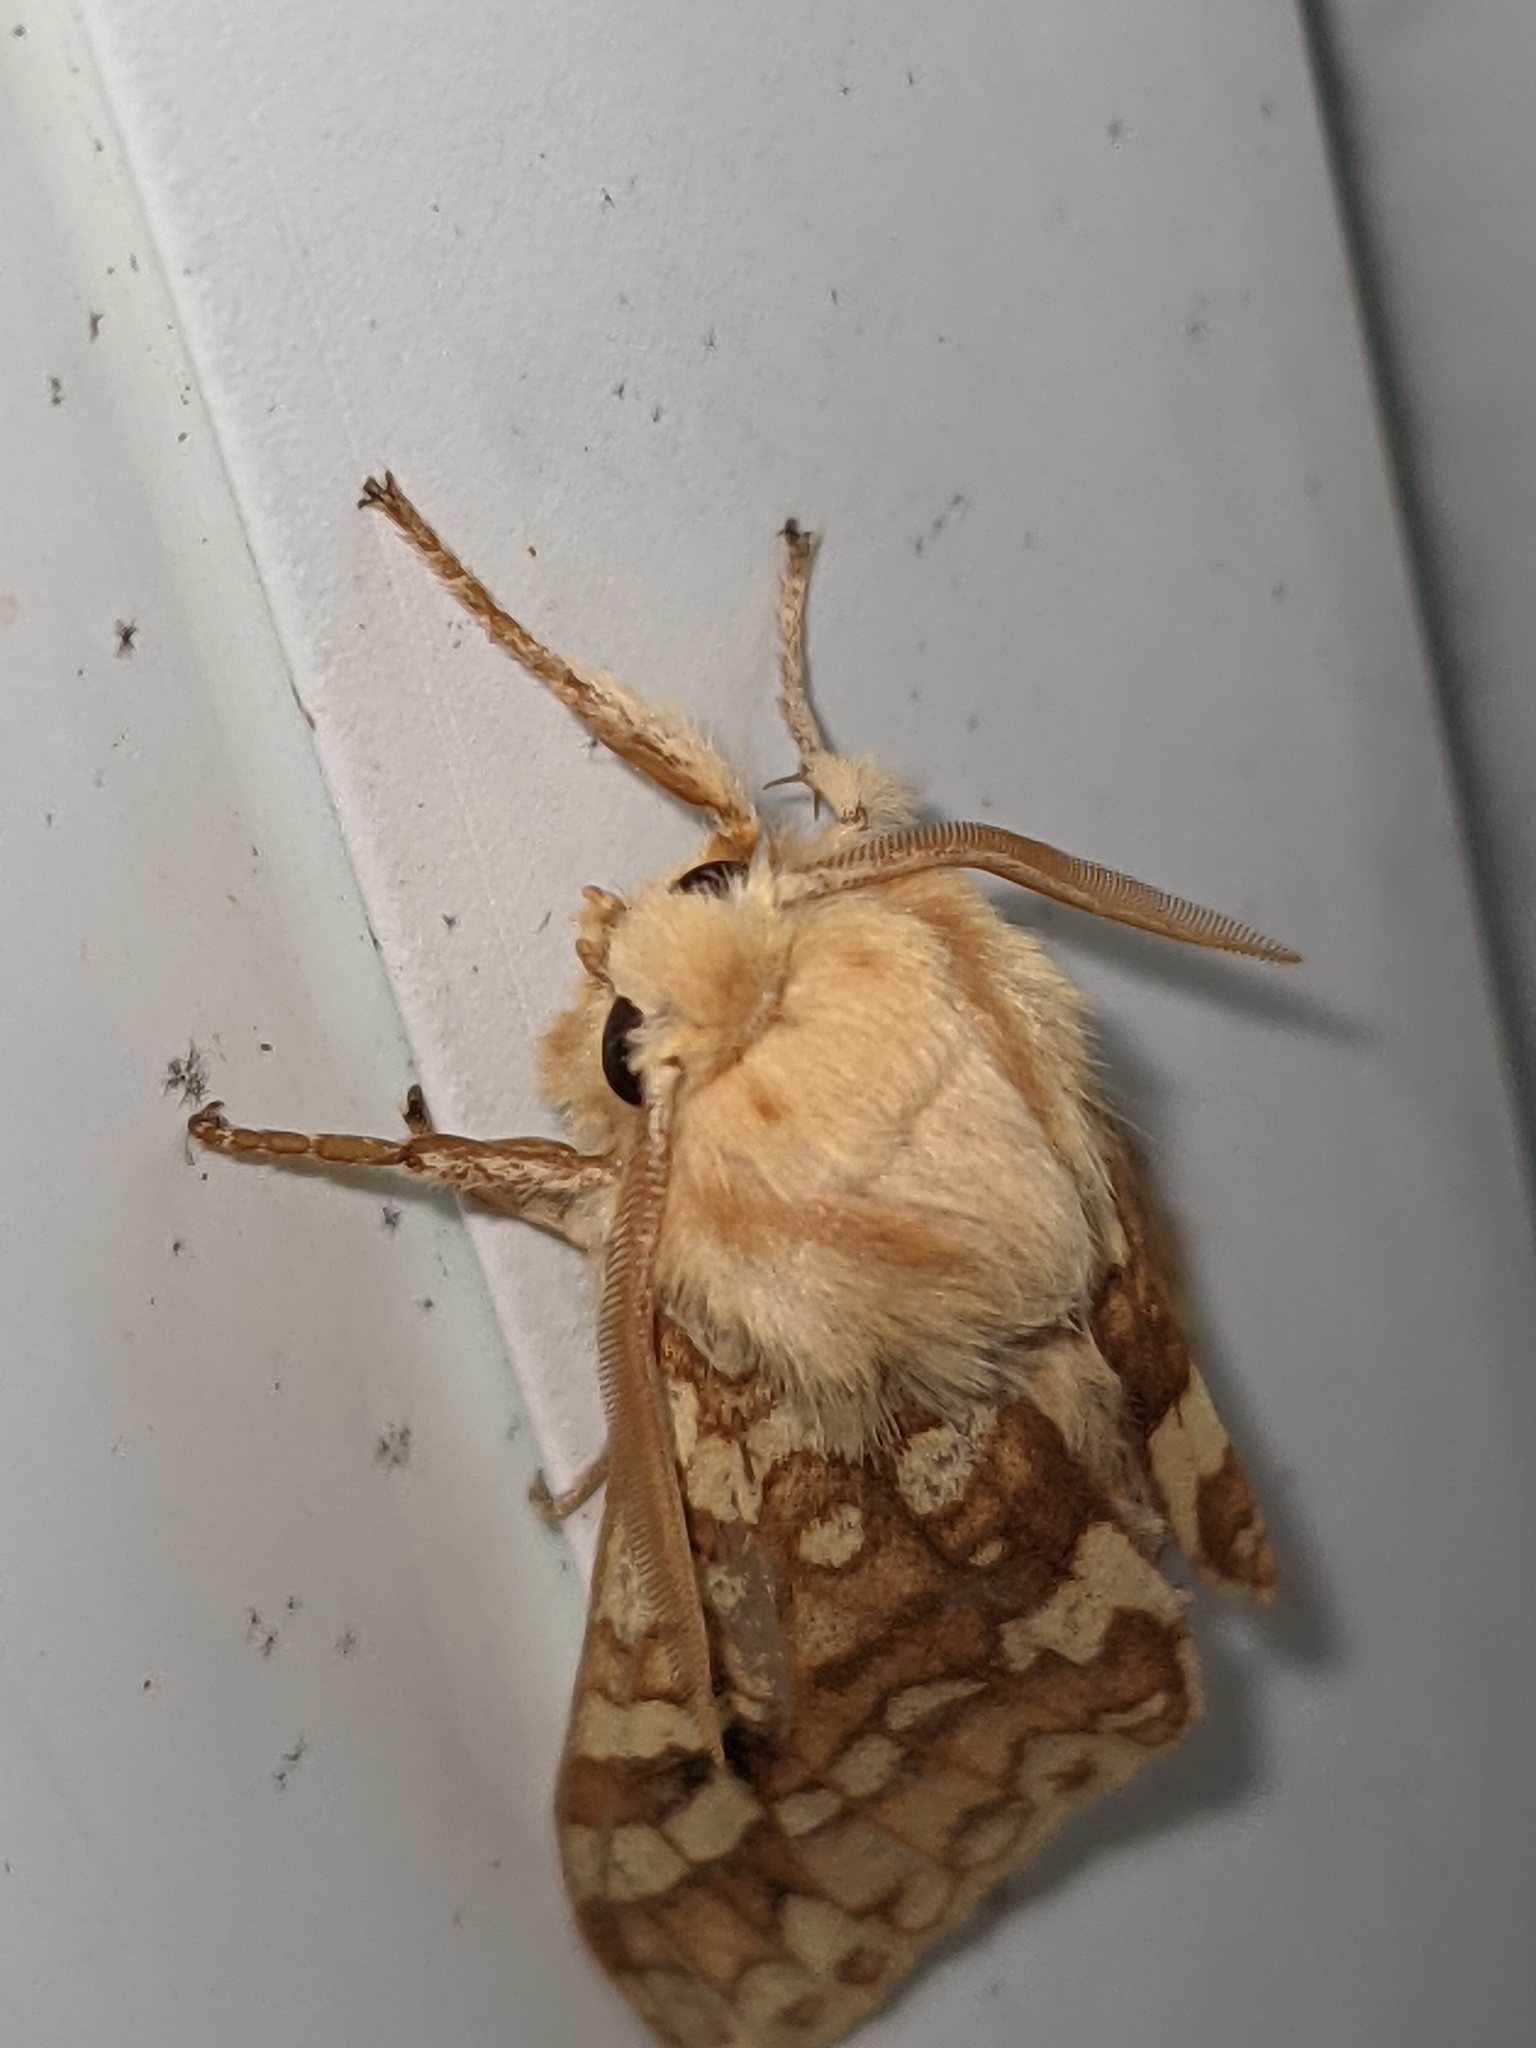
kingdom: Animalia
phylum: Arthropoda
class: Insecta
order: Lepidoptera
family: Erebidae
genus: Lophocampa
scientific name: Lophocampa maculata
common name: Spotted tussock moth
